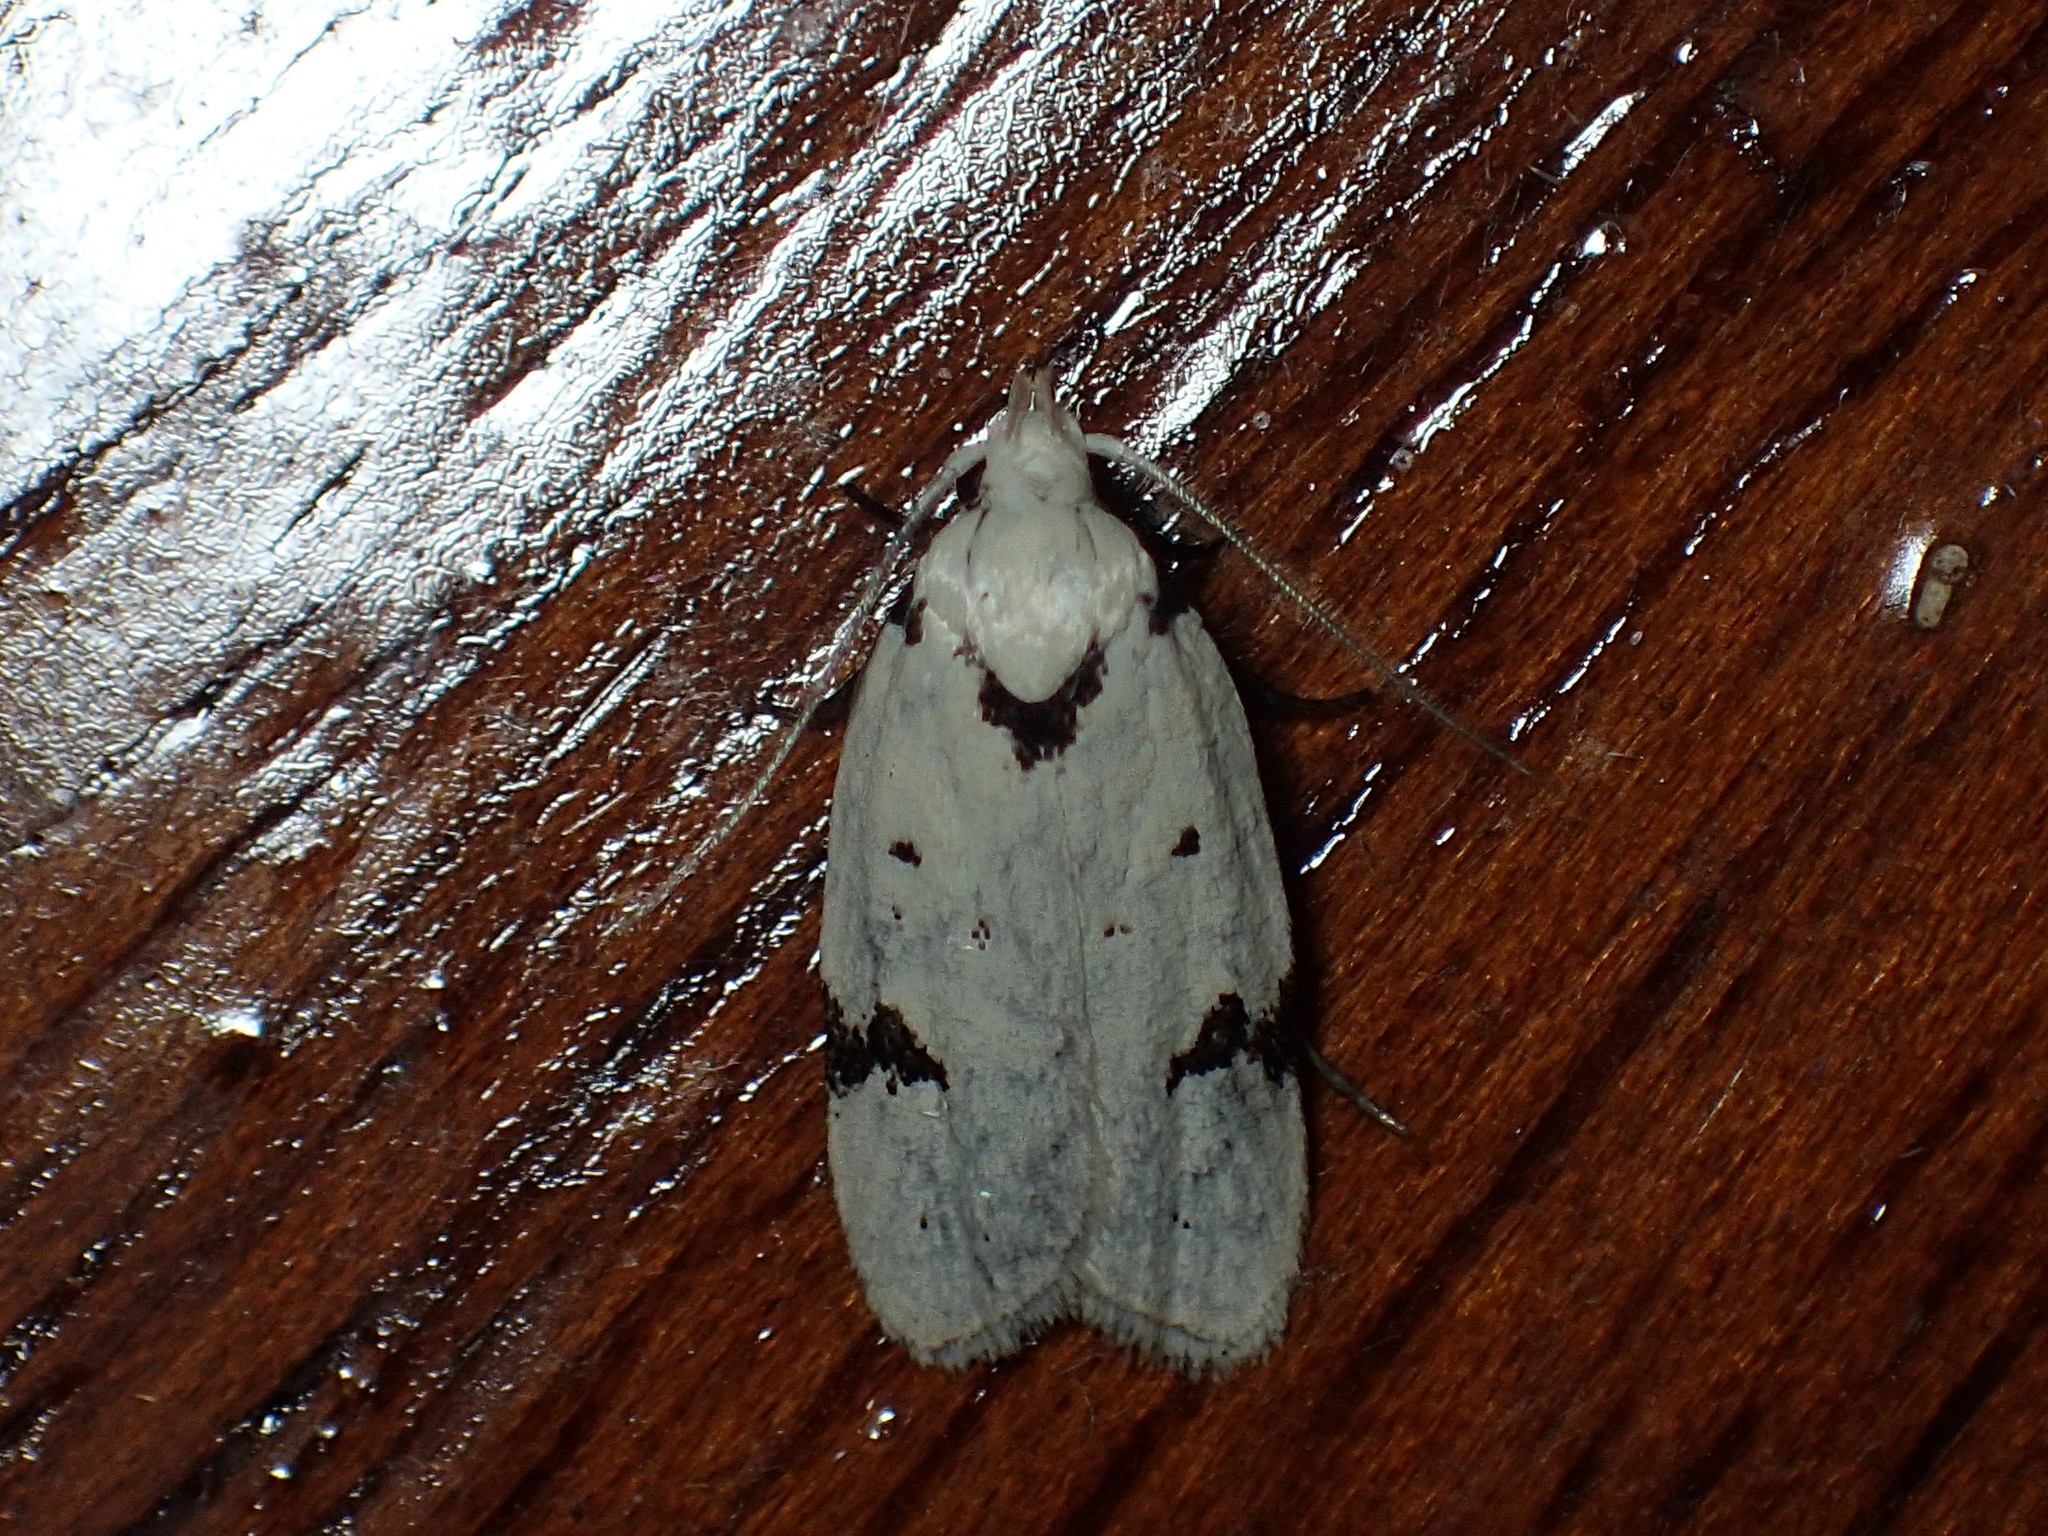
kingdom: Animalia
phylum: Arthropoda
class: Insecta
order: Lepidoptera
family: Oecophoridae
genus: Inga
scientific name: Inga sparsiciliella
